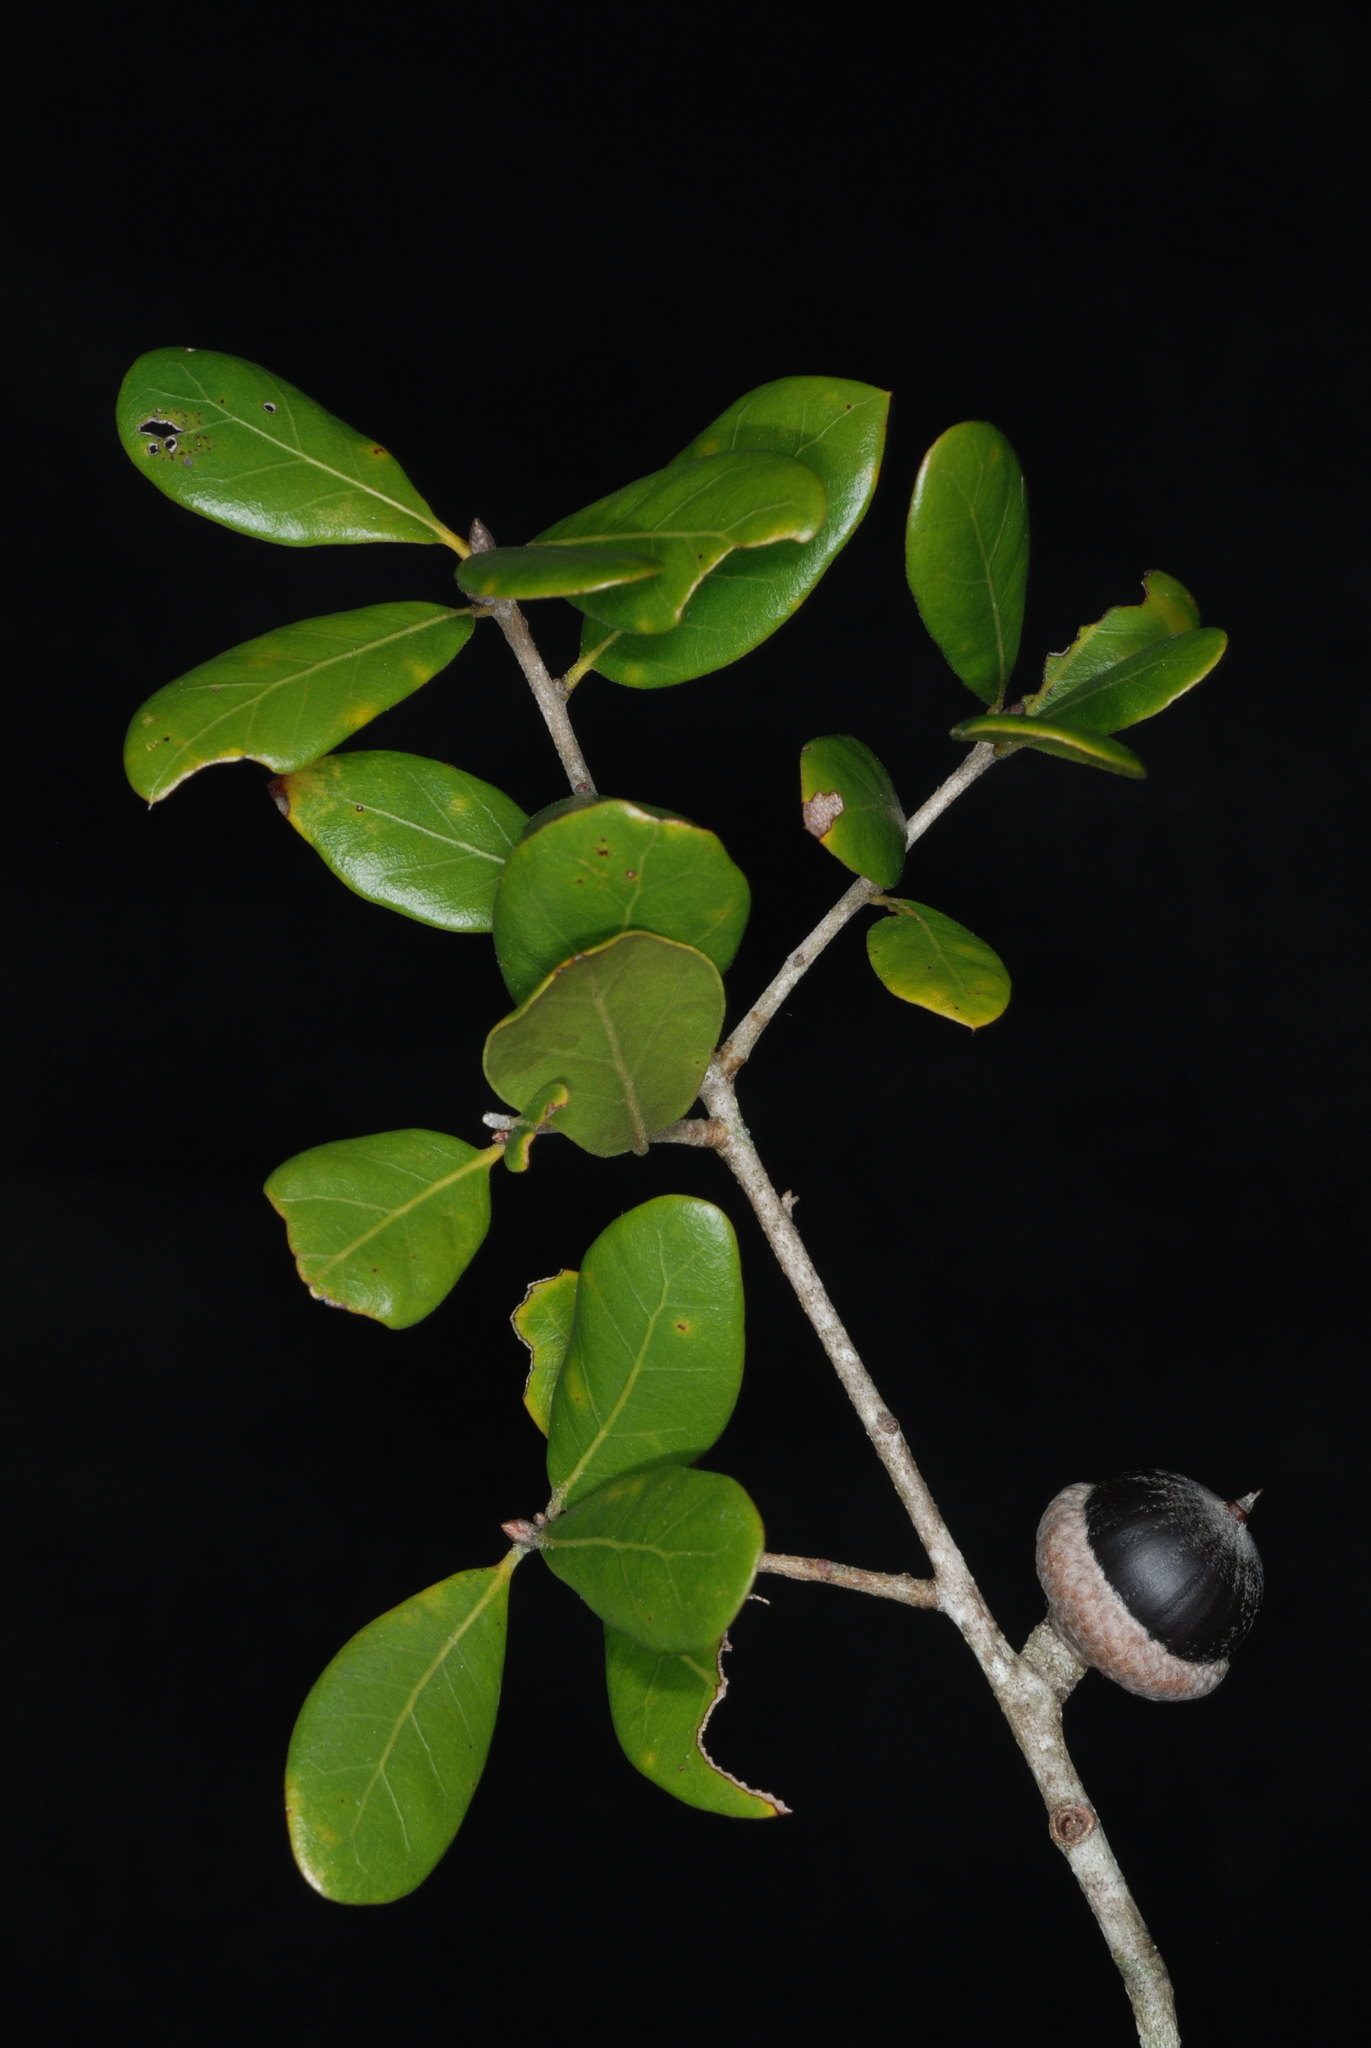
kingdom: Plantae
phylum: Tracheophyta
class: Magnoliopsida
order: Fagales
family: Fagaceae
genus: Quercus
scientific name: Quercus myrtifolia
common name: Myrtle oak
